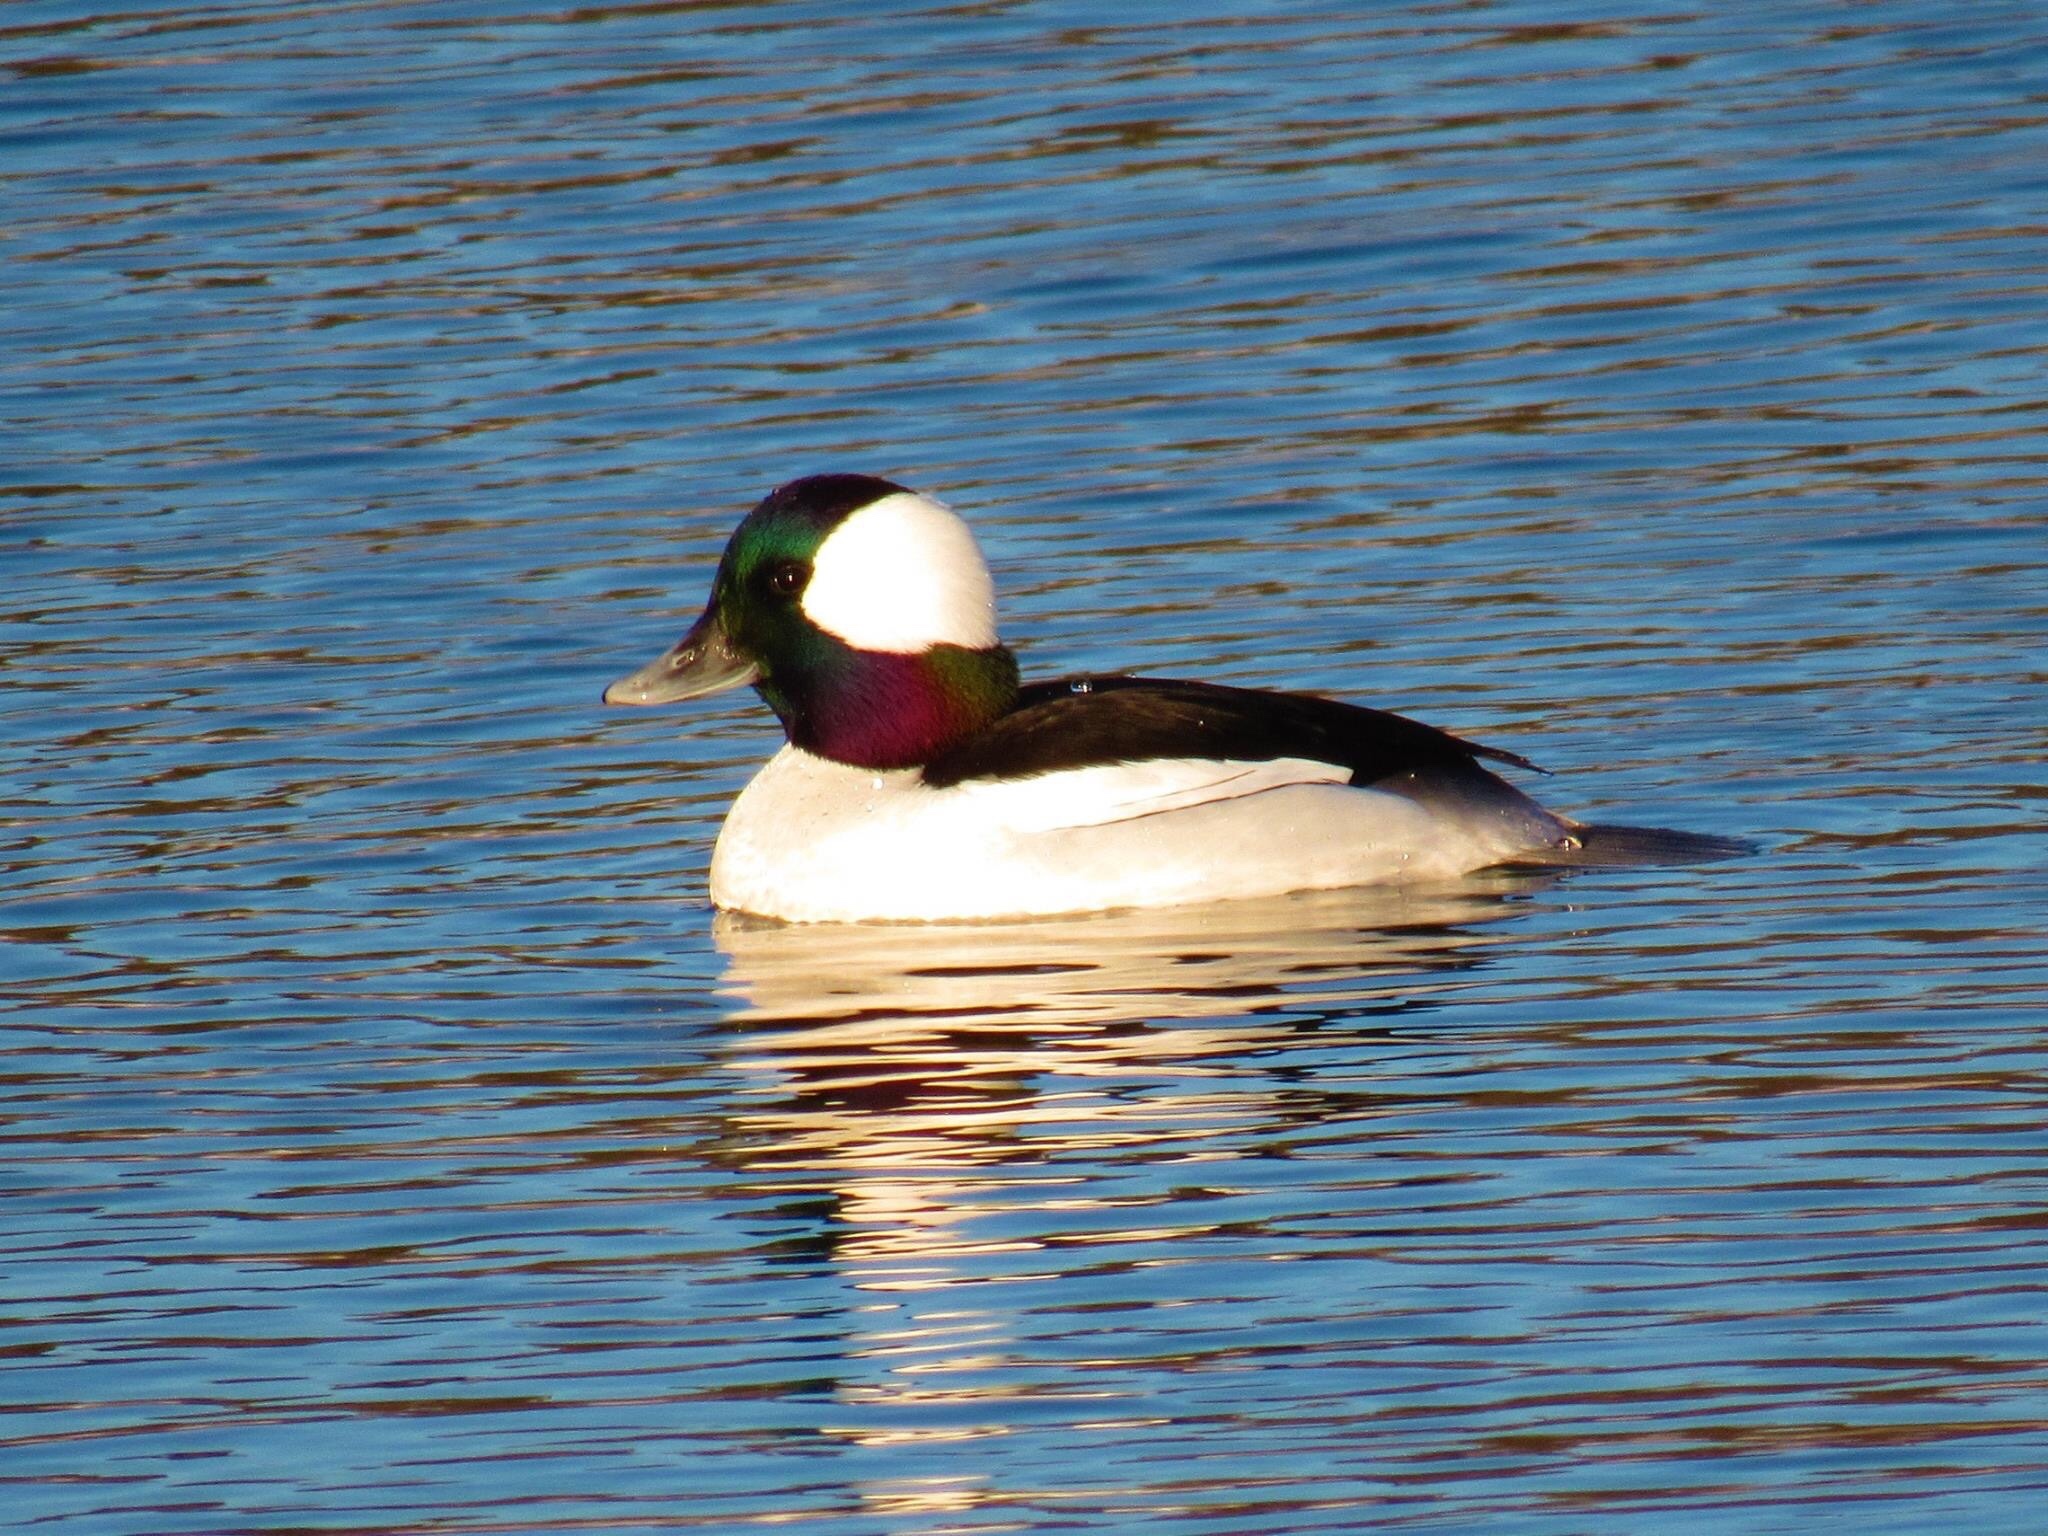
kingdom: Animalia
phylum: Chordata
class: Aves
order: Anseriformes
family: Anatidae
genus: Bucephala
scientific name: Bucephala albeola
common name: Bufflehead
